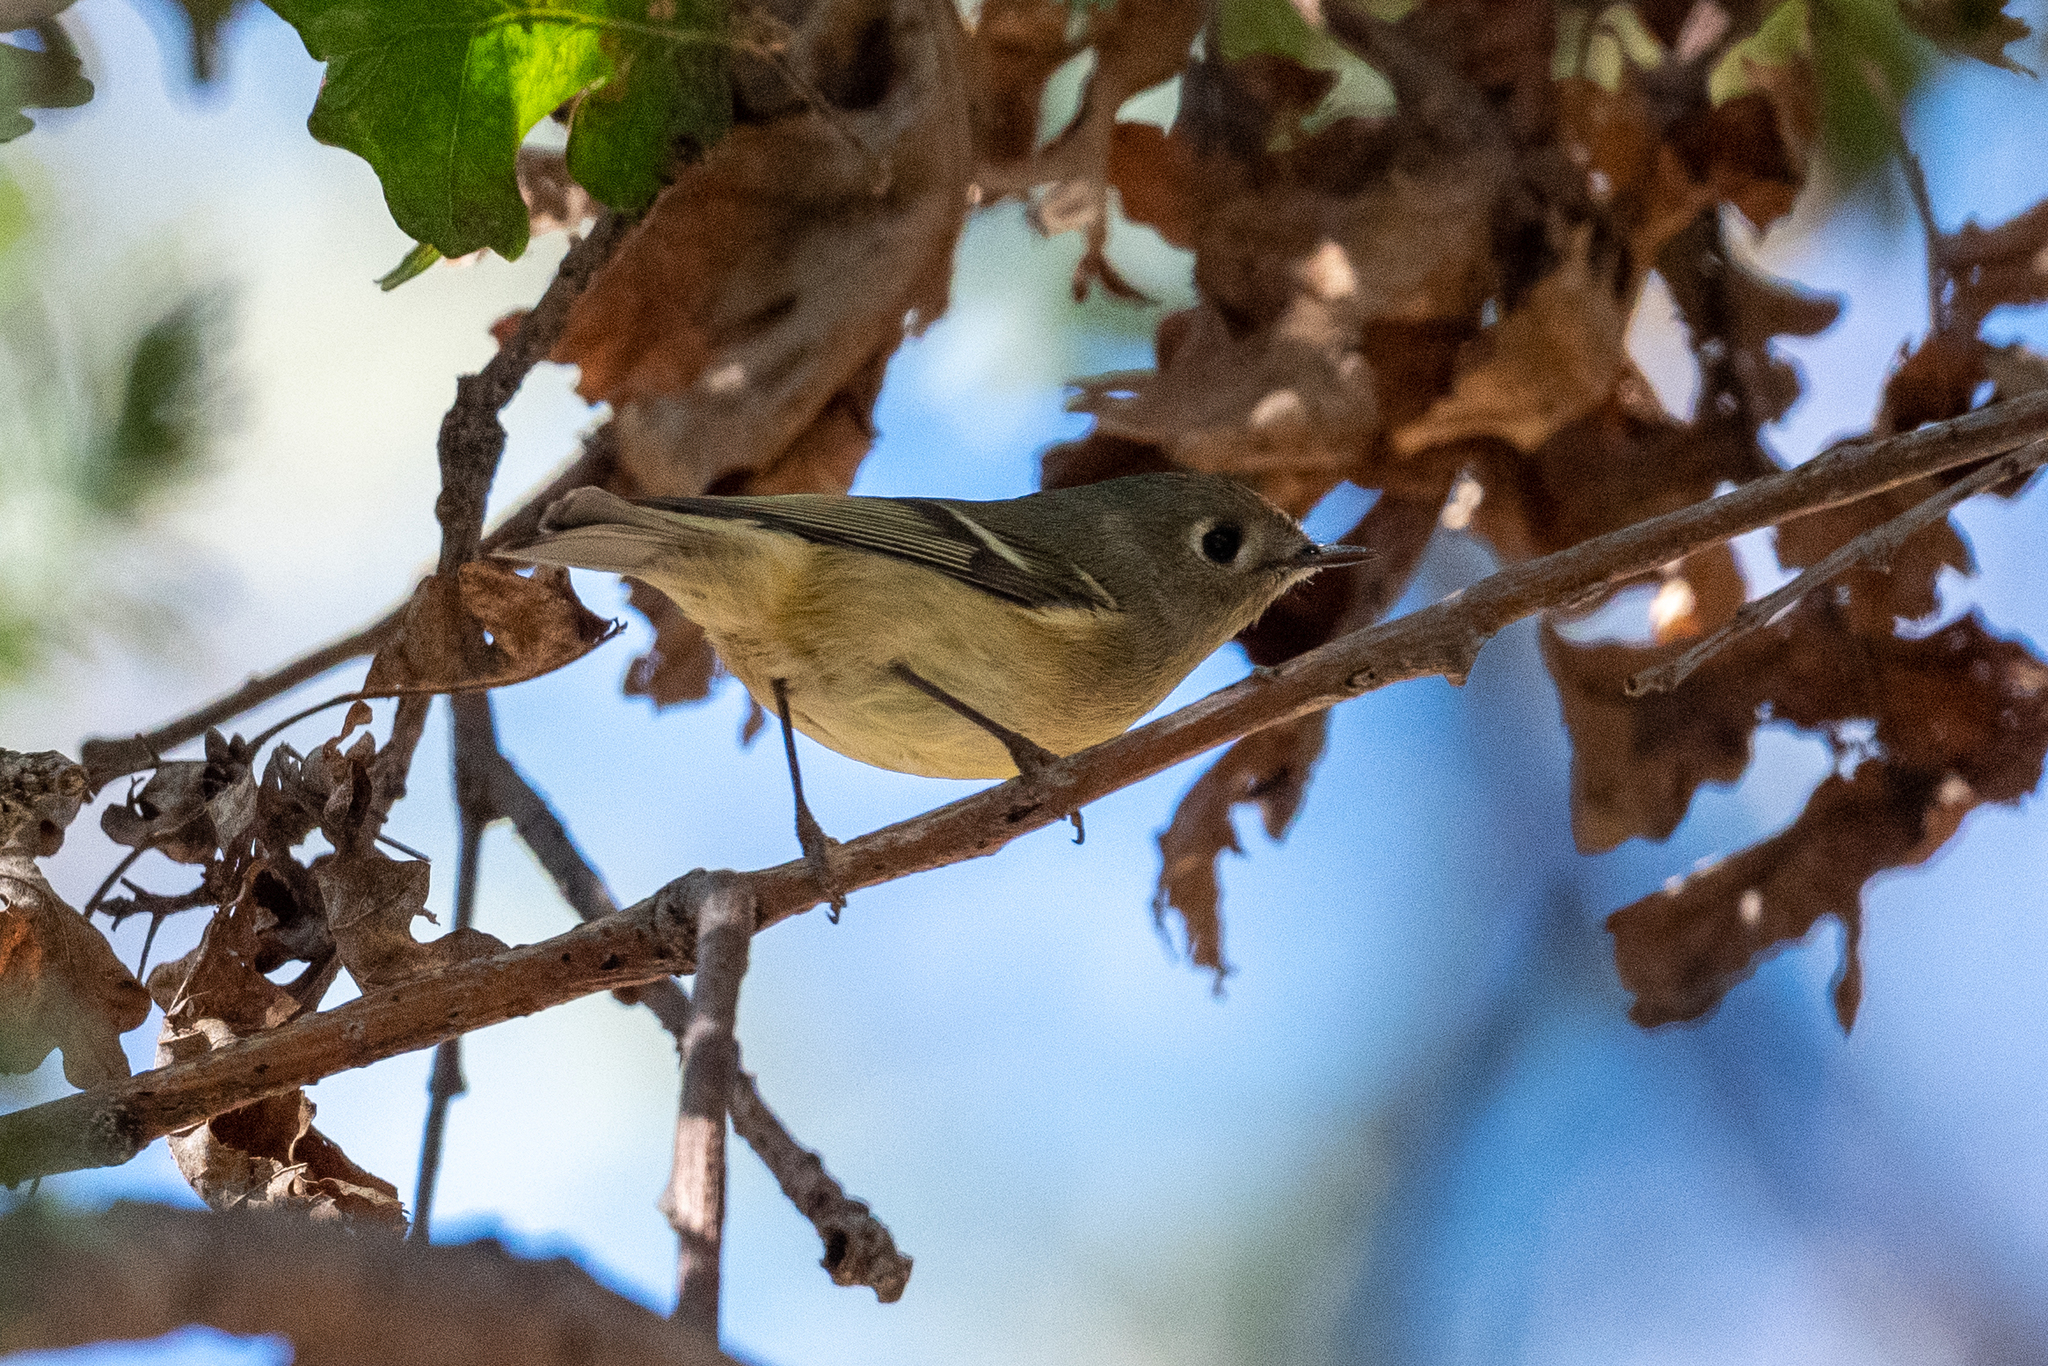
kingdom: Animalia
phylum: Chordata
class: Aves
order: Passeriformes
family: Regulidae
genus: Regulus
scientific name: Regulus calendula
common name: Ruby-crowned kinglet
